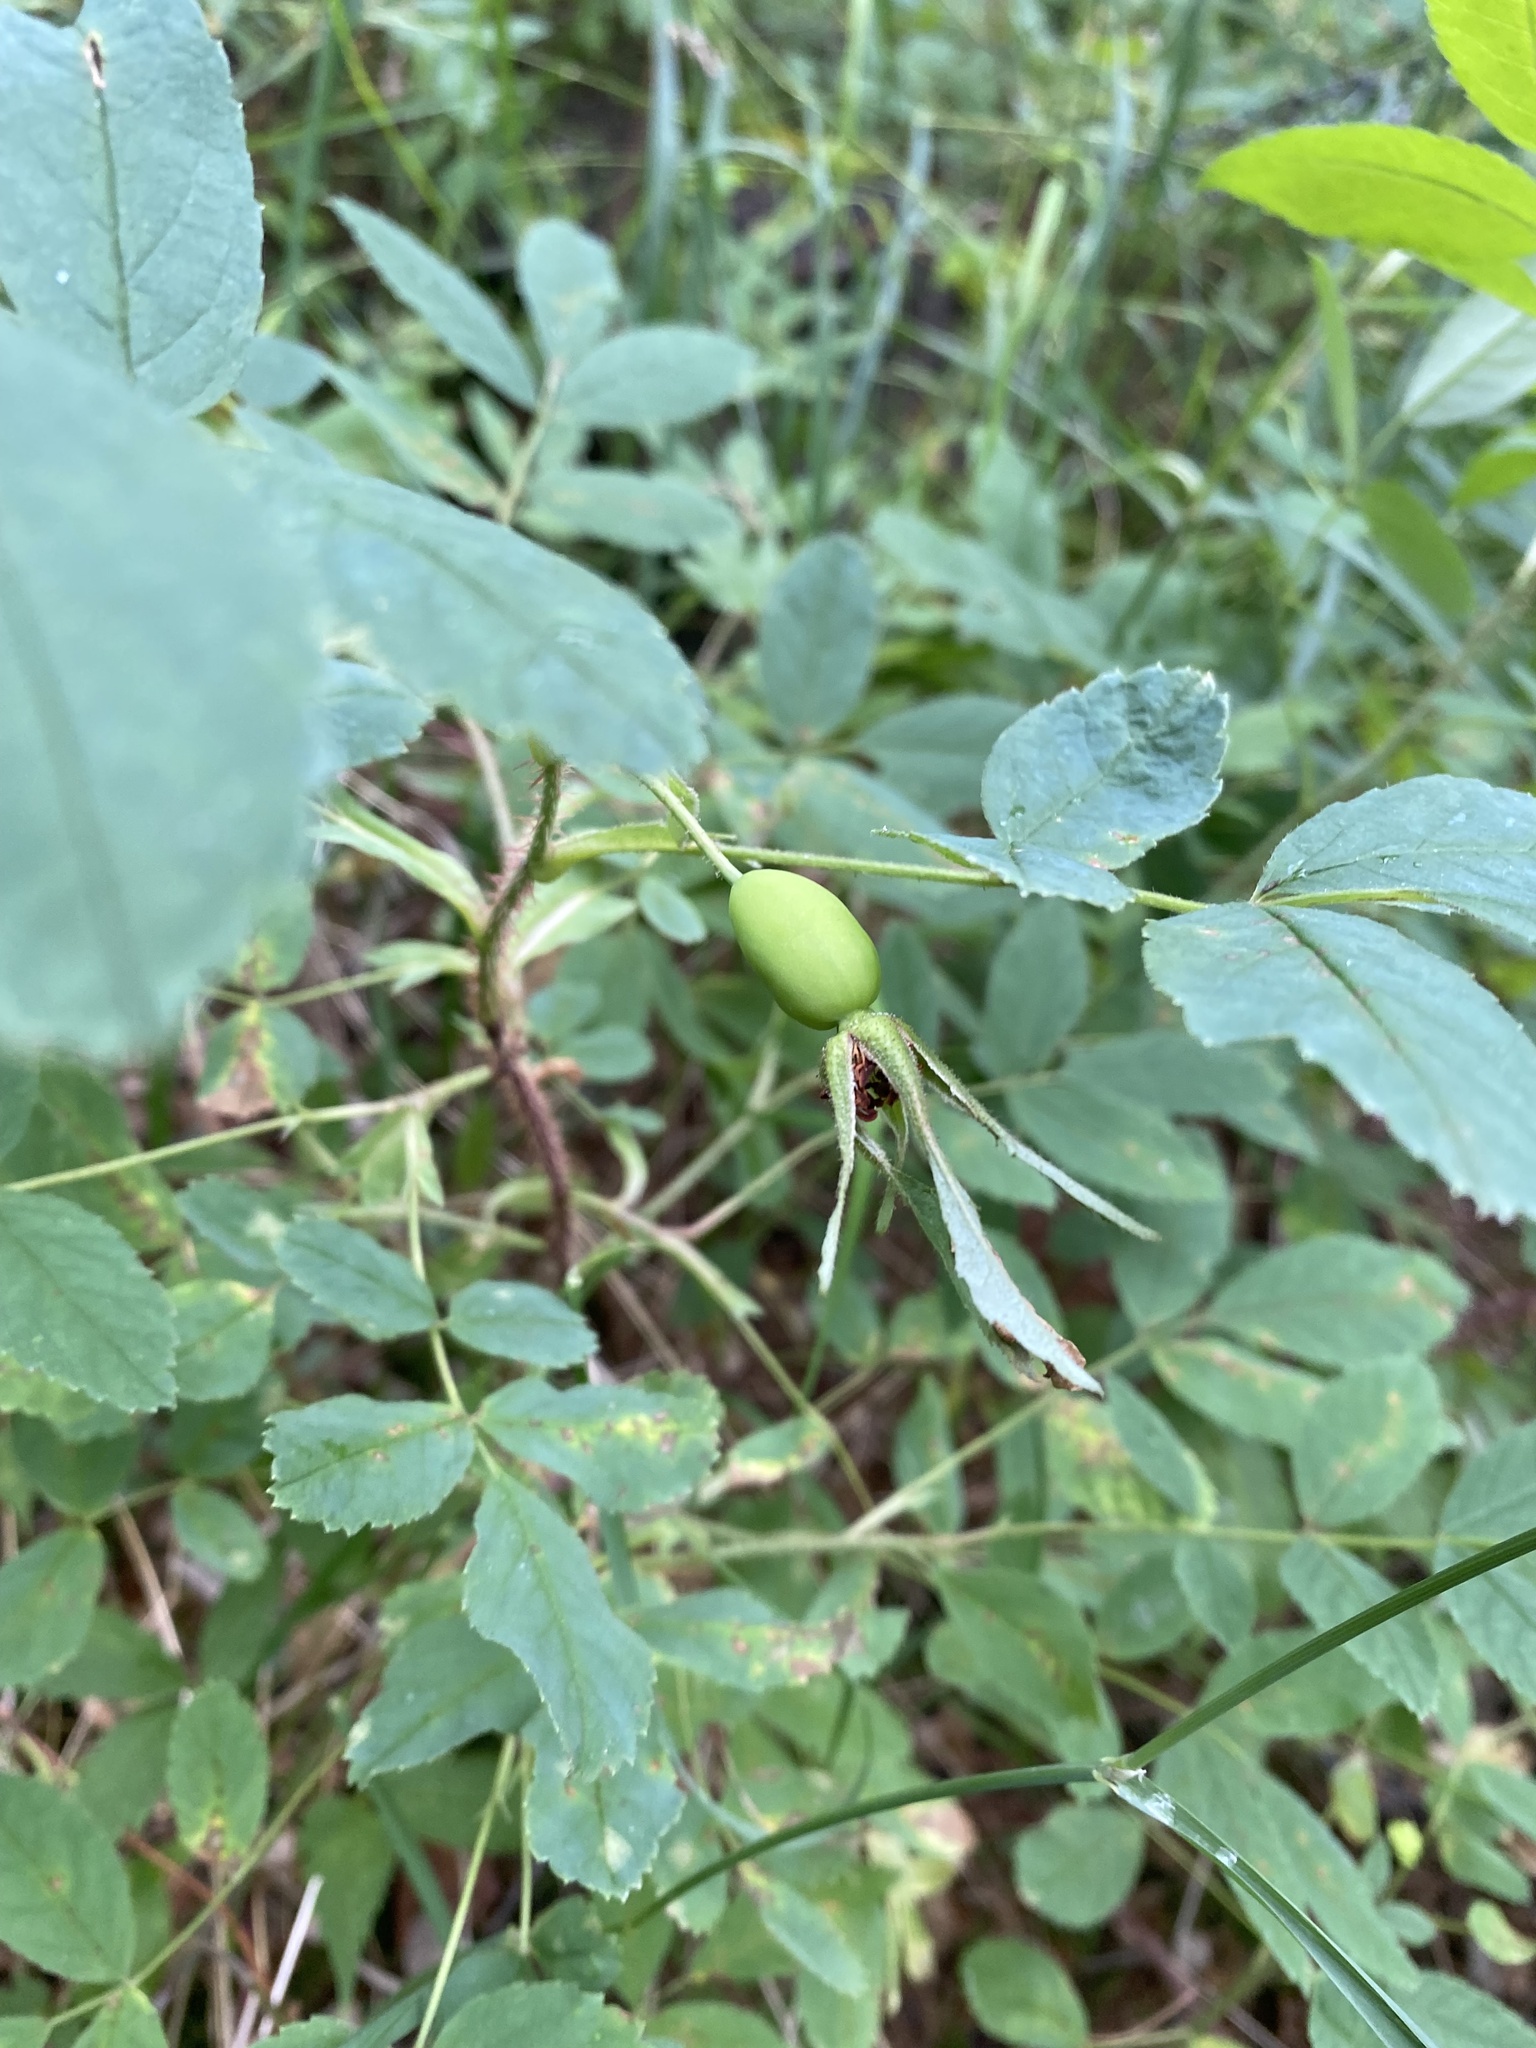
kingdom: Plantae
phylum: Tracheophyta
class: Magnoliopsida
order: Rosales
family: Rosaceae
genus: Rosa
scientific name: Rosa acicularis
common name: Prickly rose
